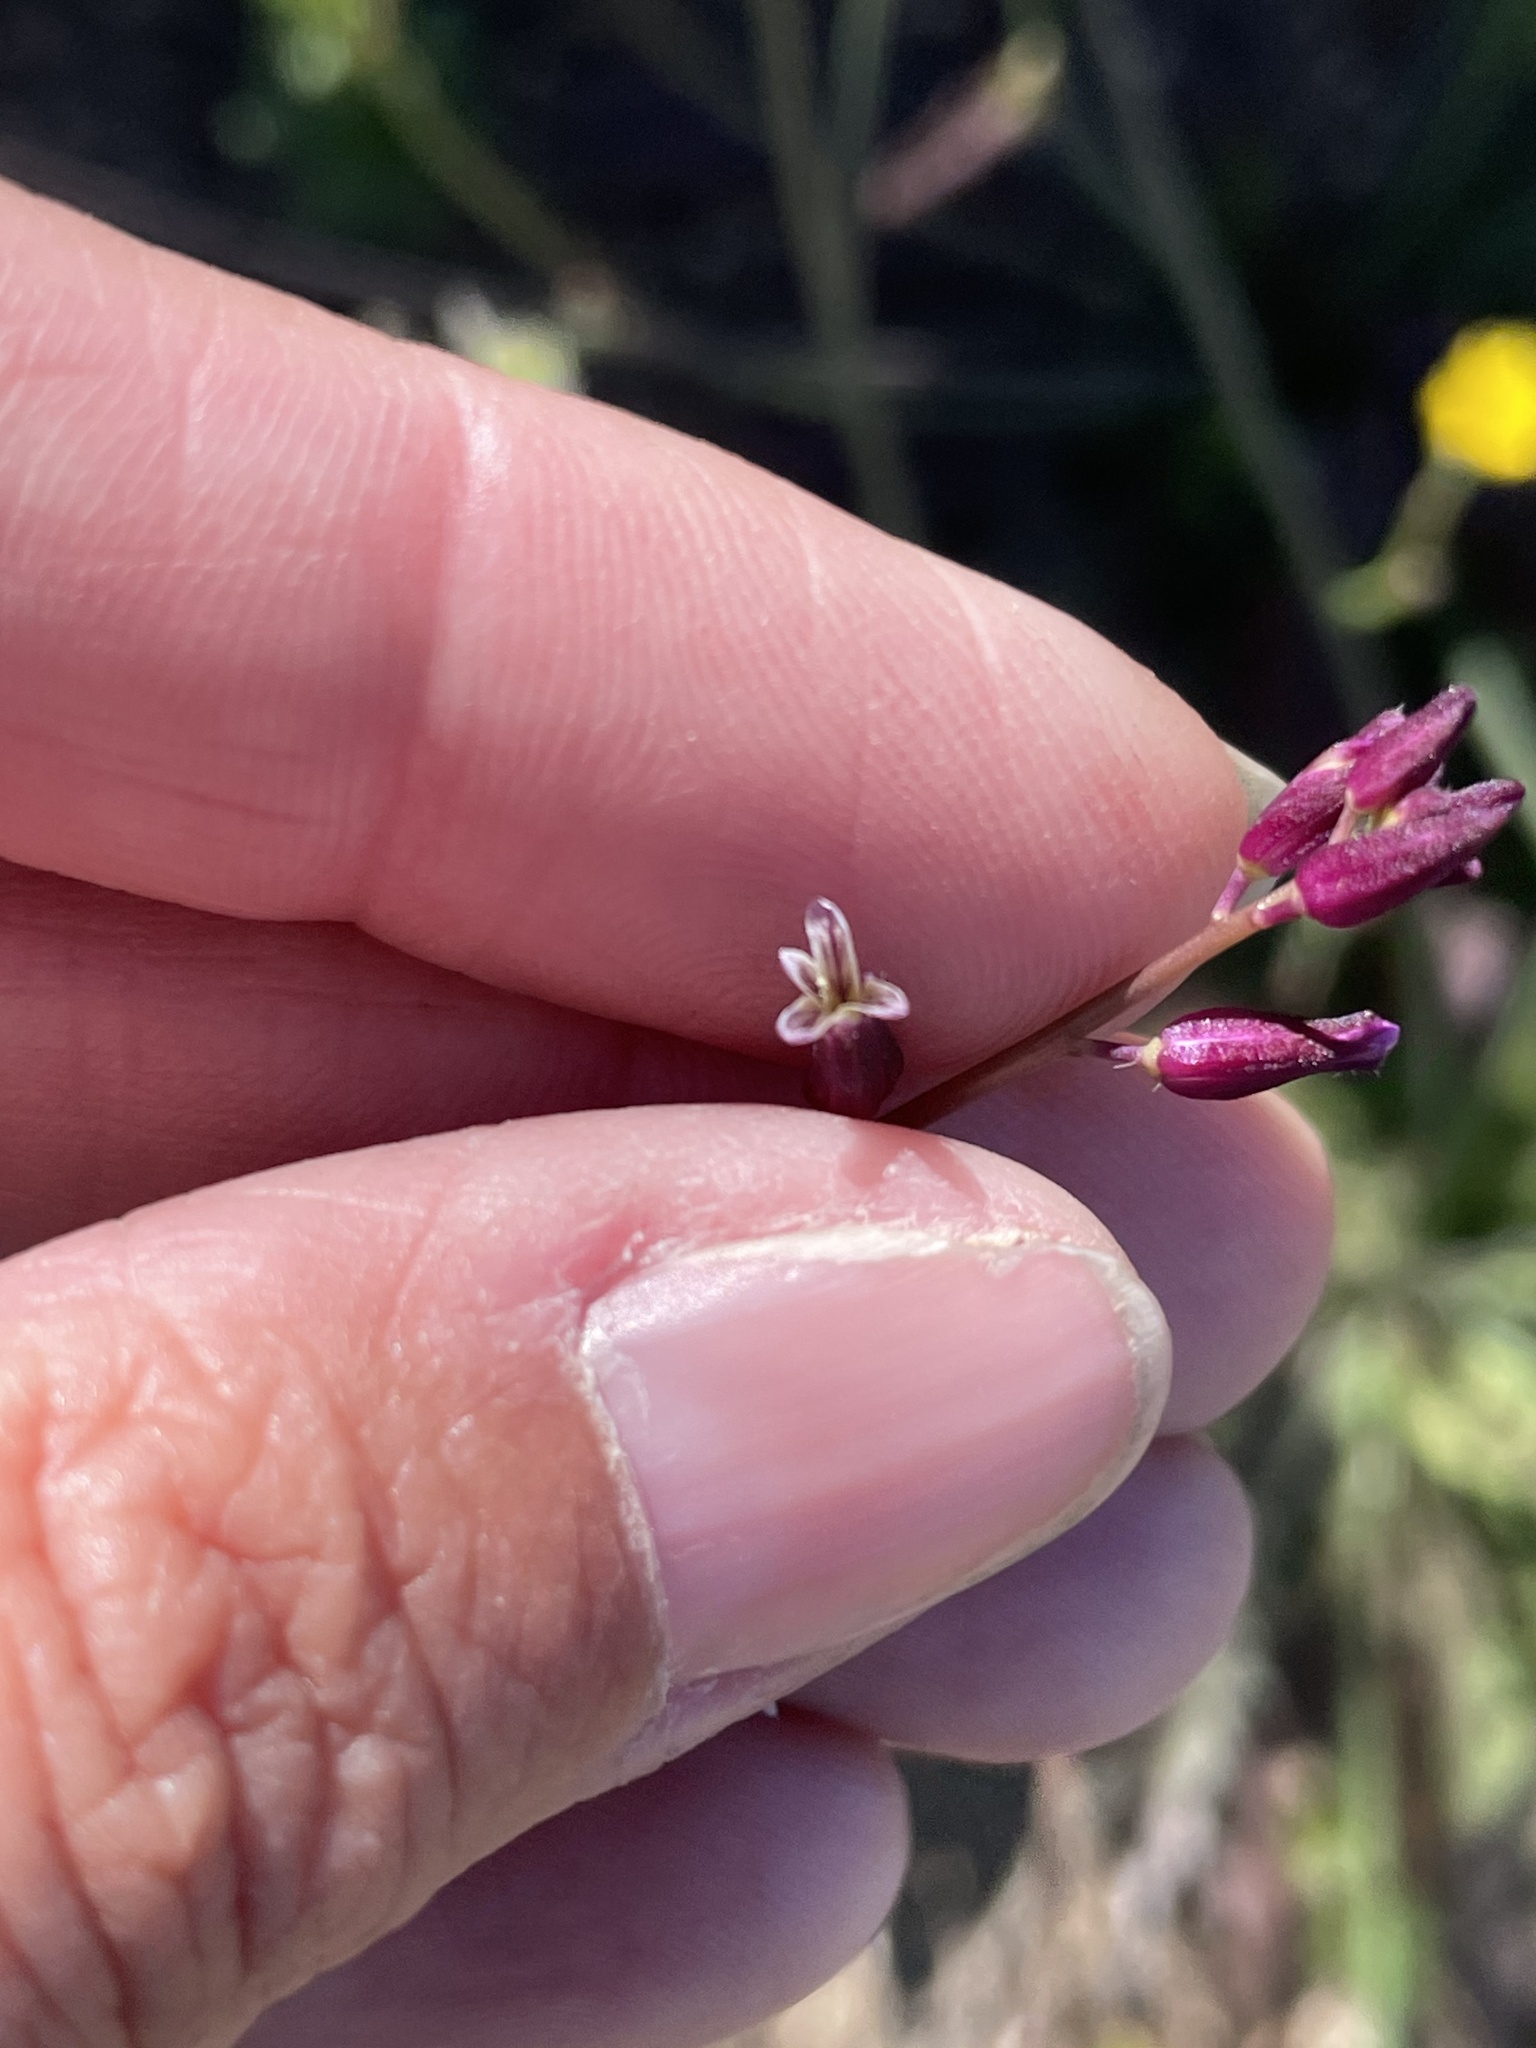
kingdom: Plantae
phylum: Tracheophyta
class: Magnoliopsida
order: Brassicales
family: Brassicaceae
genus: Streptanthus
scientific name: Streptanthus heterophyllus
